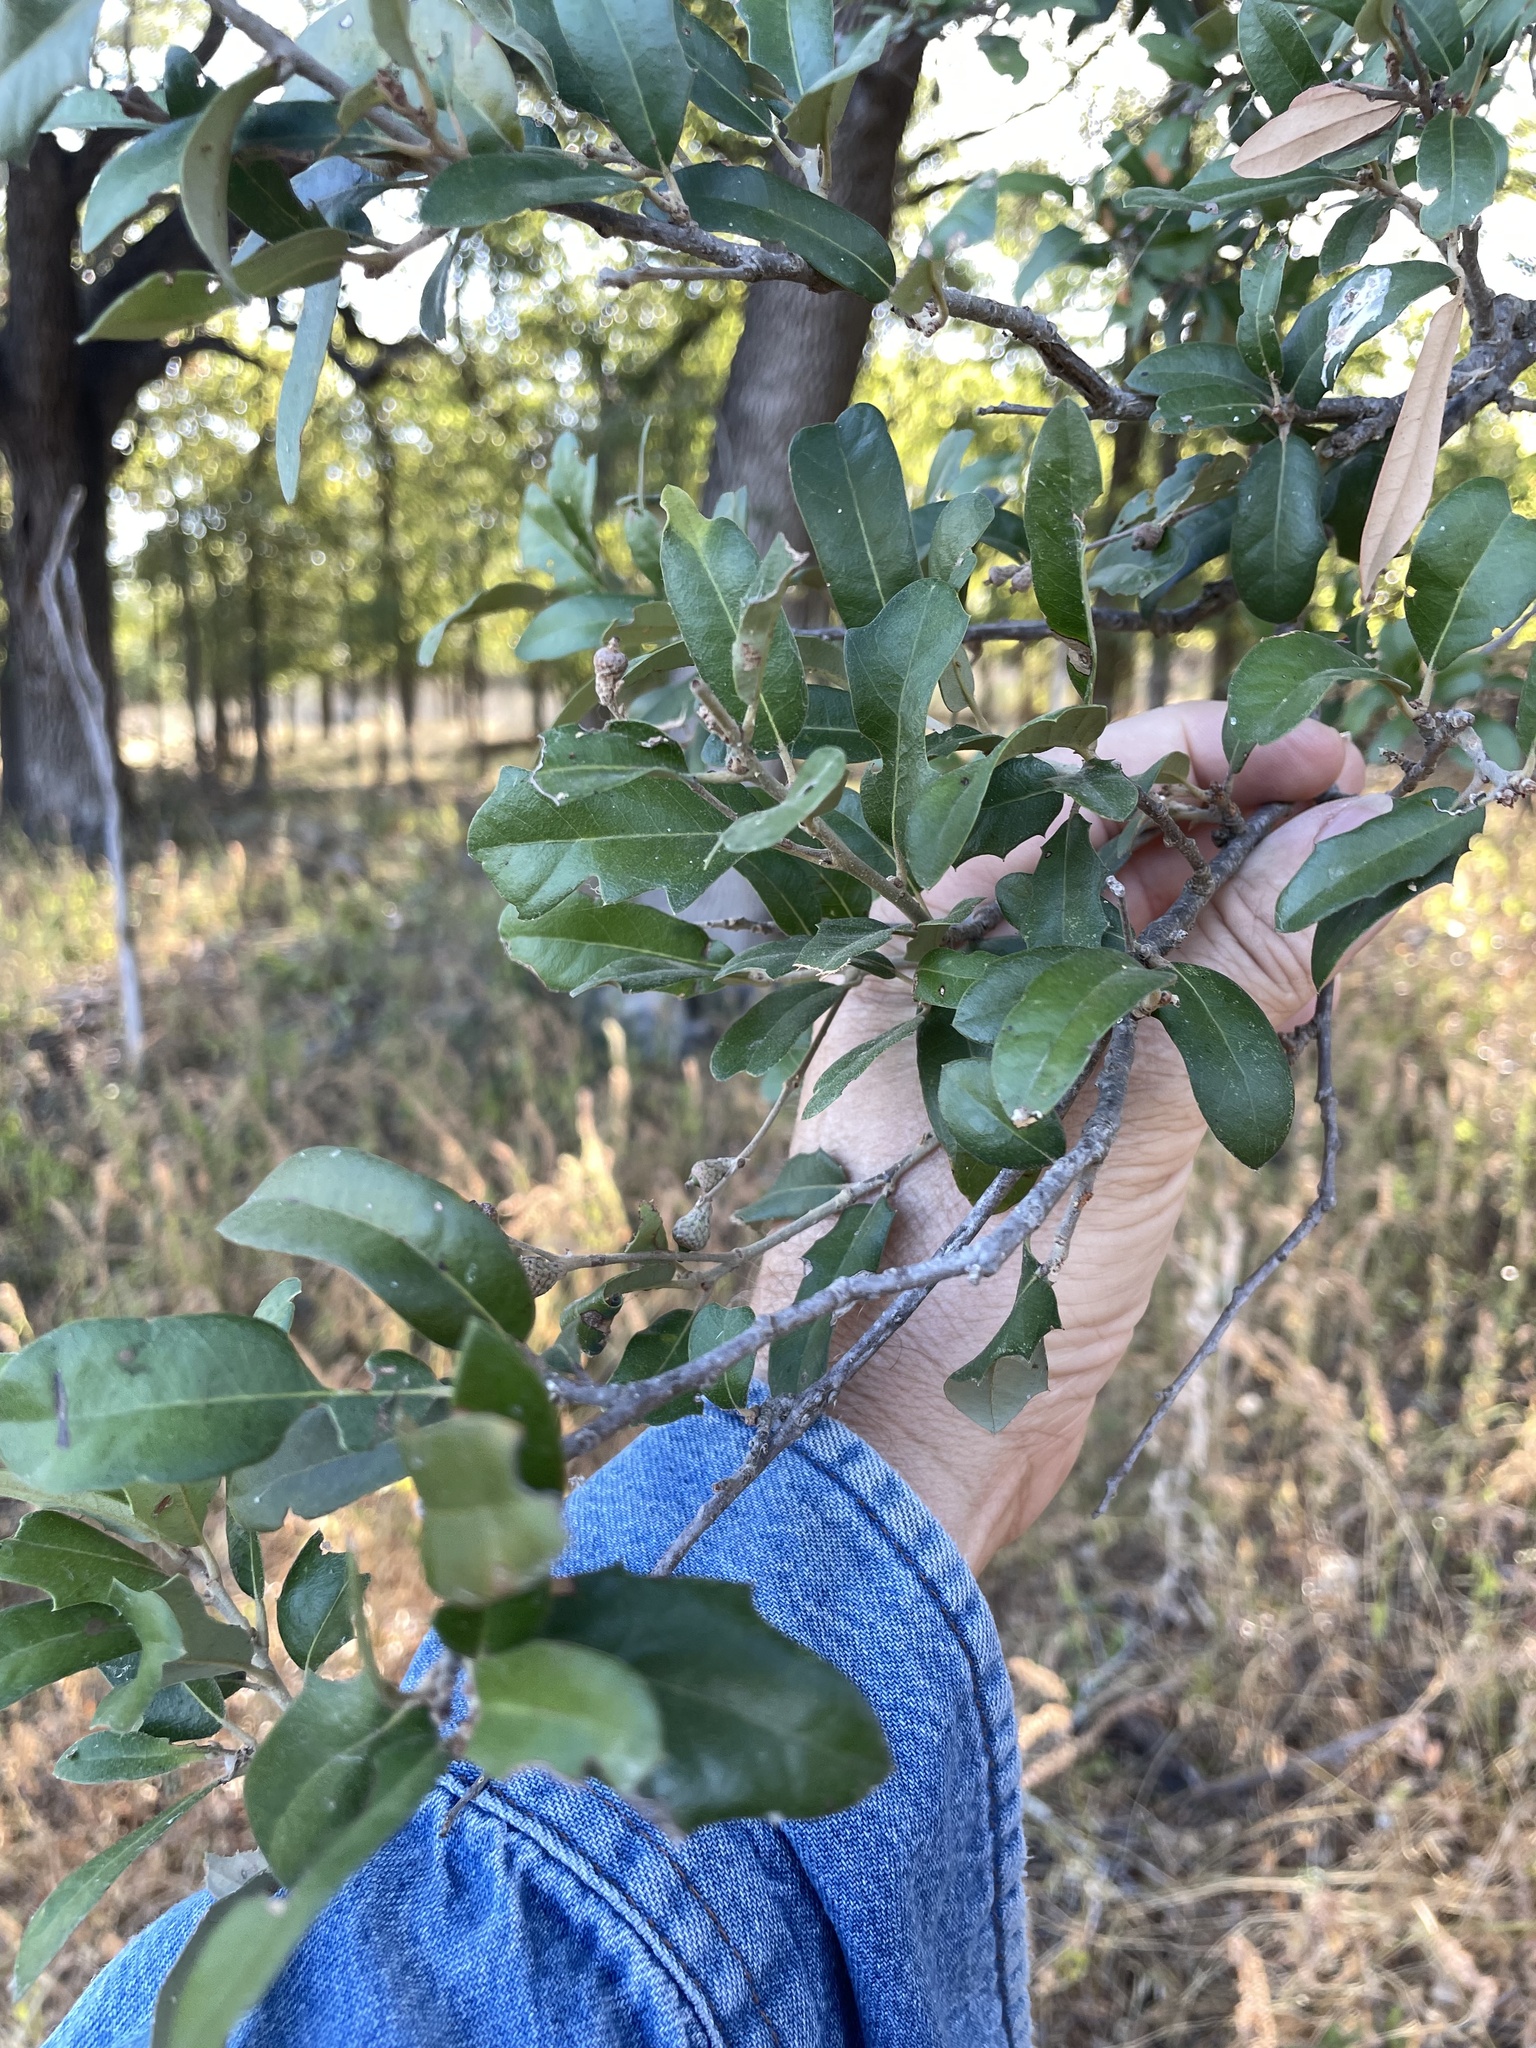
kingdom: Plantae
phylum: Tracheophyta
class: Magnoliopsida
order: Fagales
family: Fagaceae
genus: Quercus
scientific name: Quercus fusiformis
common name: Texas live oak
